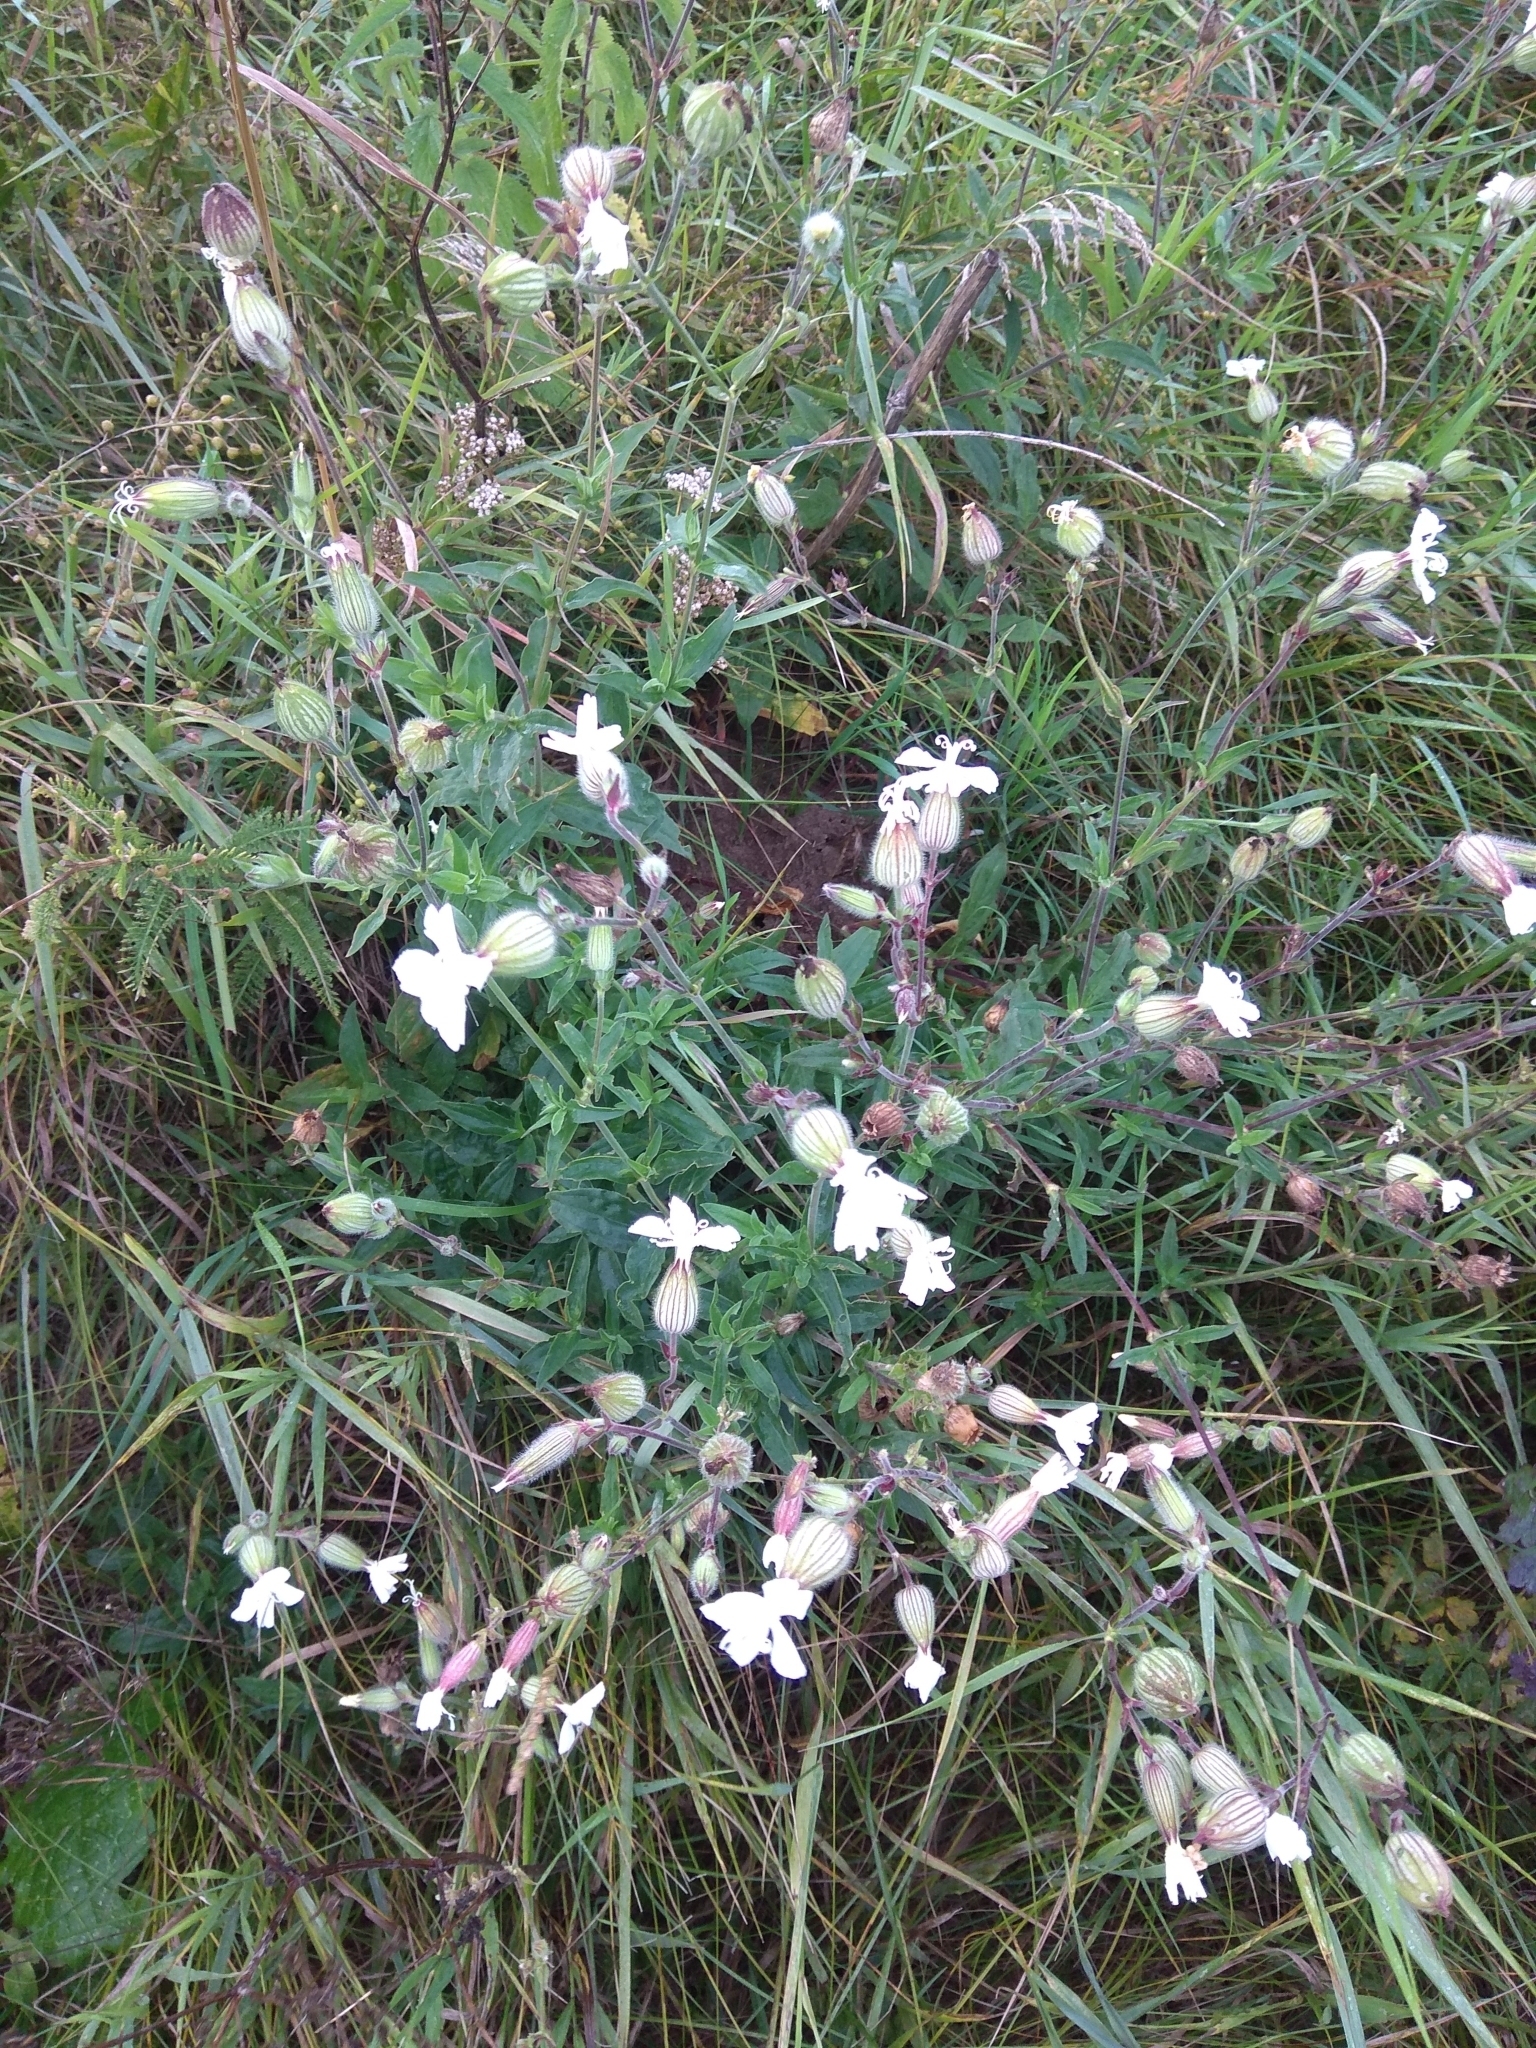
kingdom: Plantae
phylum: Tracheophyta
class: Magnoliopsida
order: Caryophyllales
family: Caryophyllaceae
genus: Silene
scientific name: Silene latifolia
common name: White campion
